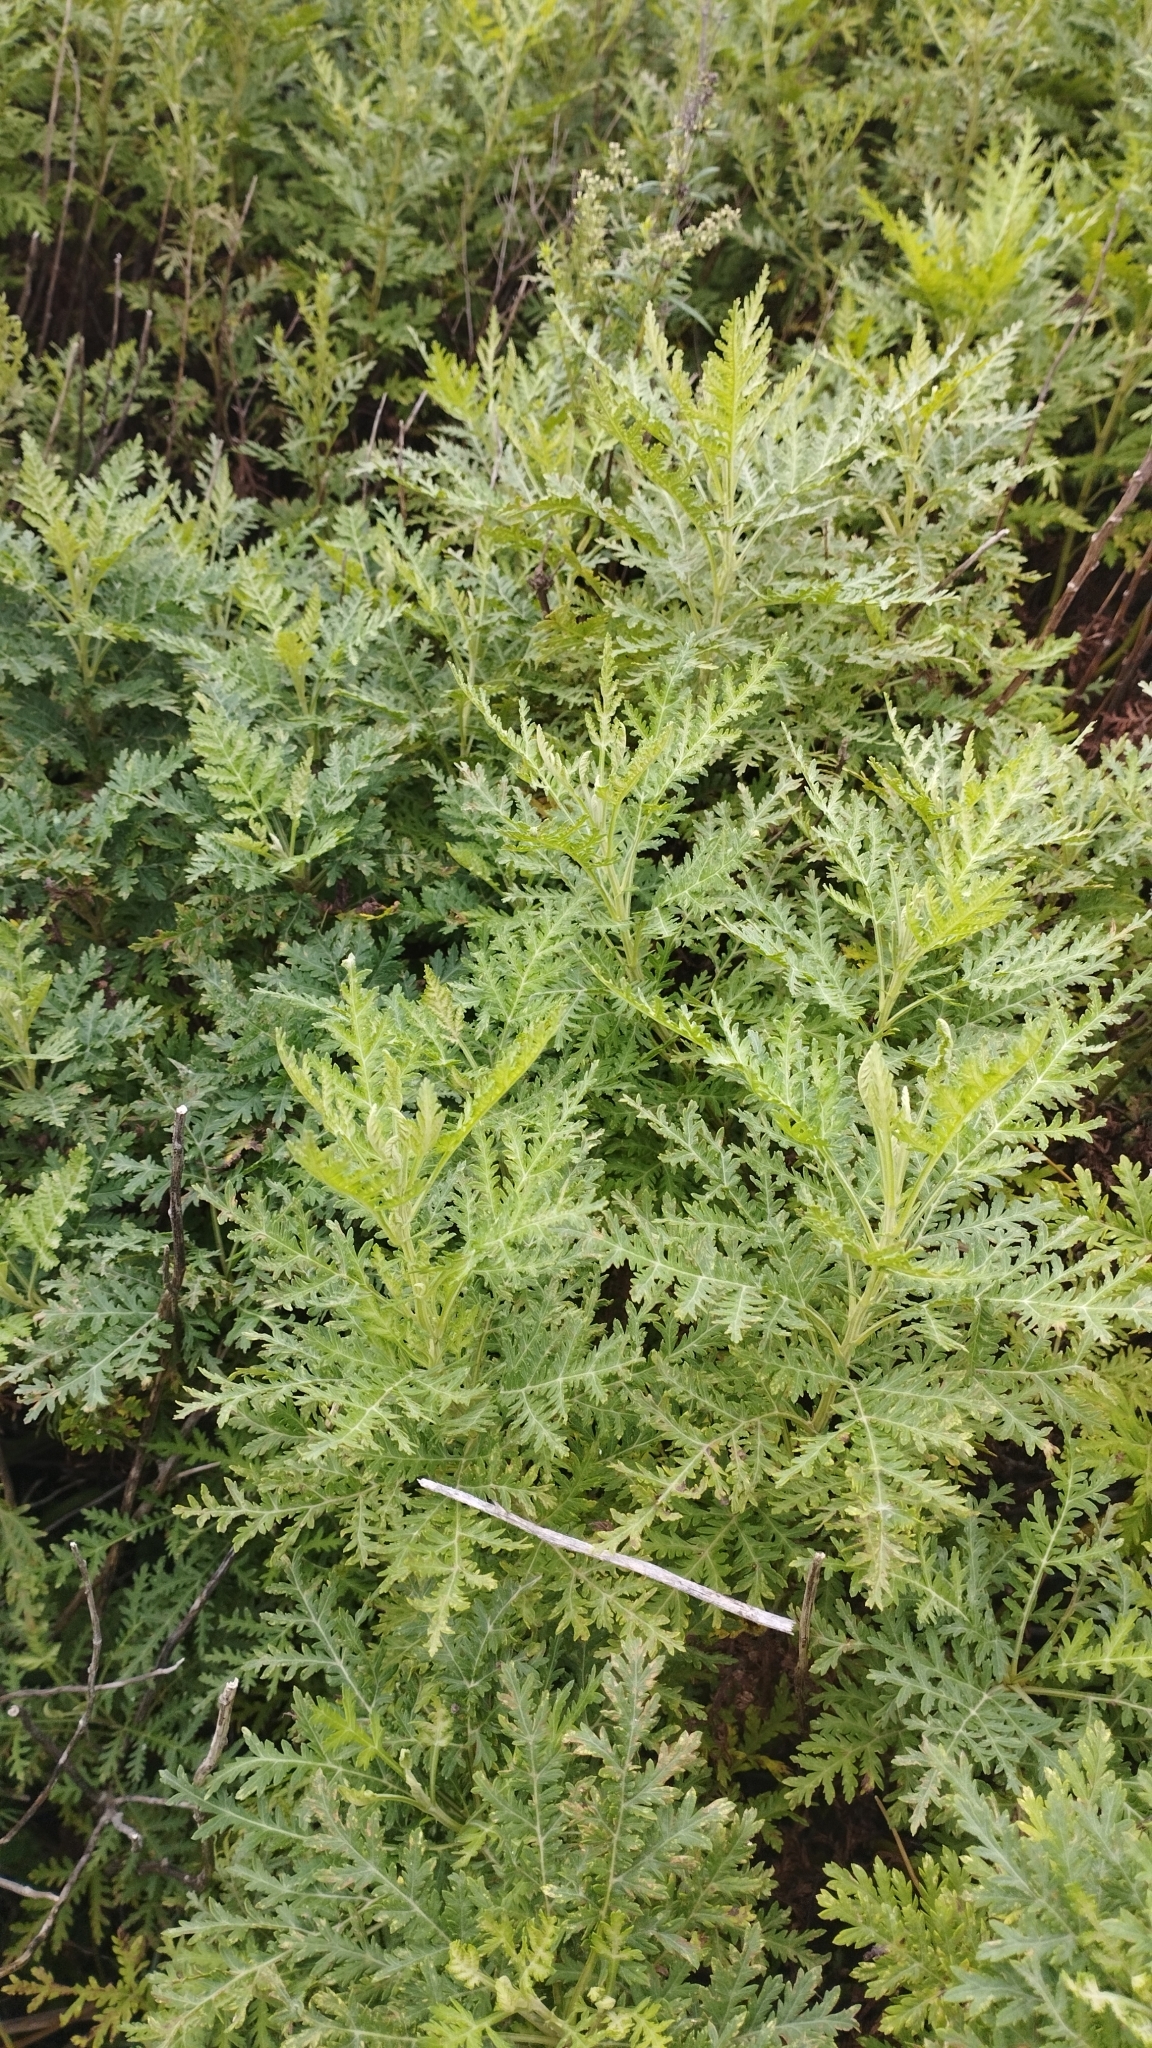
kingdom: Plantae
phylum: Tracheophyta
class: Magnoliopsida
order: Asterales
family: Asteraceae
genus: Artemisia
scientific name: Artemisia gmelinii
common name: Gmelin's wormwood
